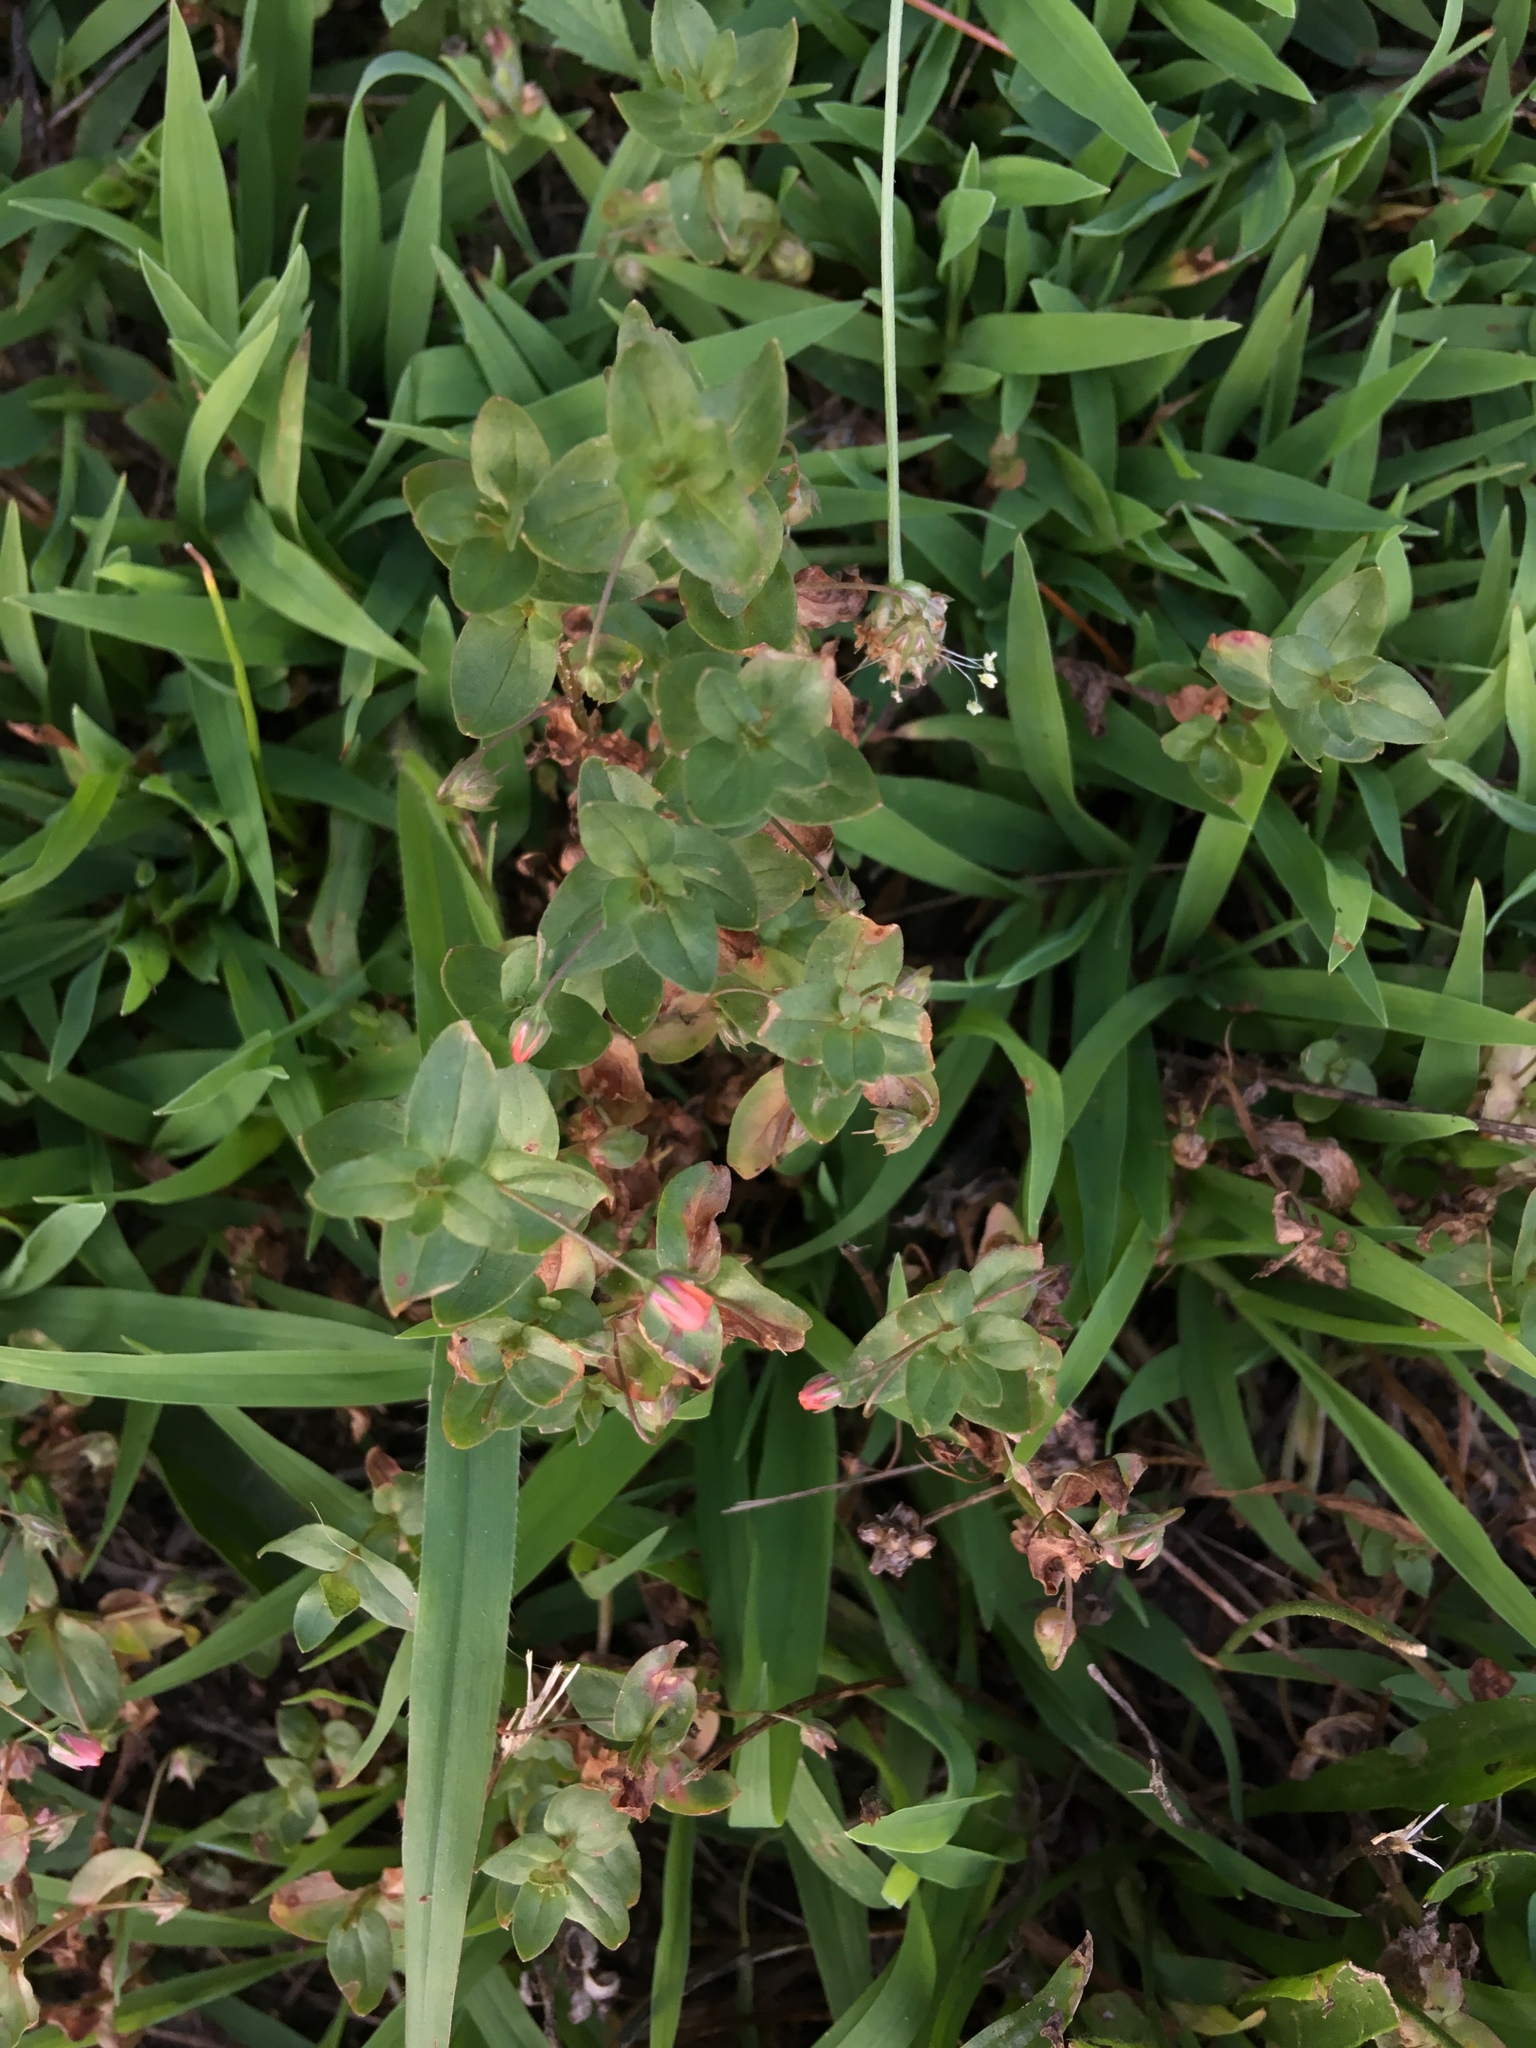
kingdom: Plantae
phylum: Tracheophyta
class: Magnoliopsida
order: Ericales
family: Primulaceae
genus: Lysimachia
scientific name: Lysimachia arvensis
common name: Scarlet pimpernel
